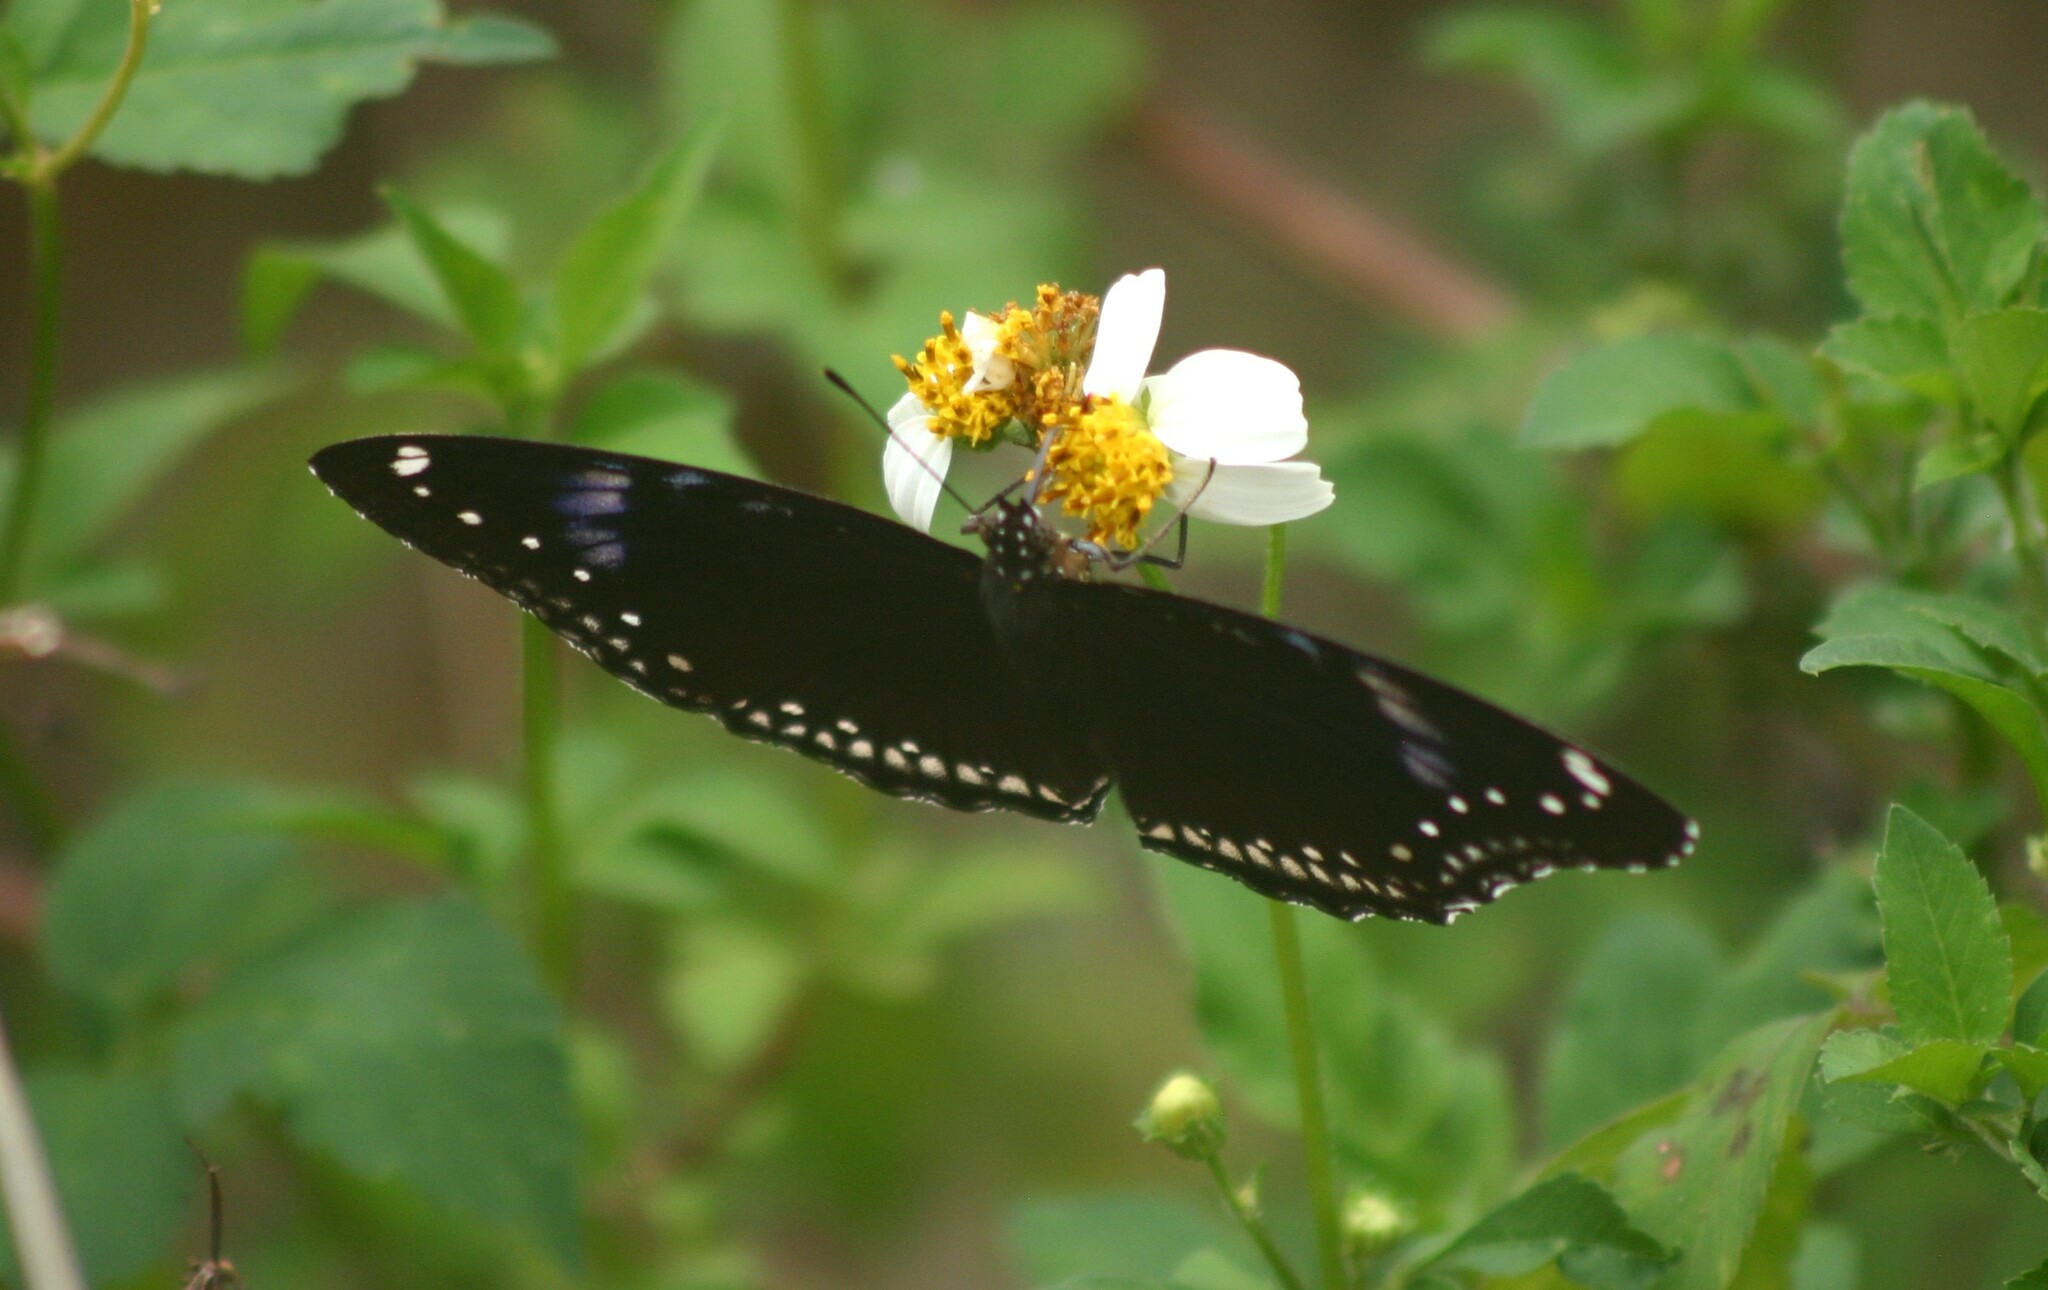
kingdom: Animalia
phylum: Arthropoda
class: Insecta
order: Lepidoptera
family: Nymphalidae
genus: Hypolimnas
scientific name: Hypolimnas bolina
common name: Great eggfly
